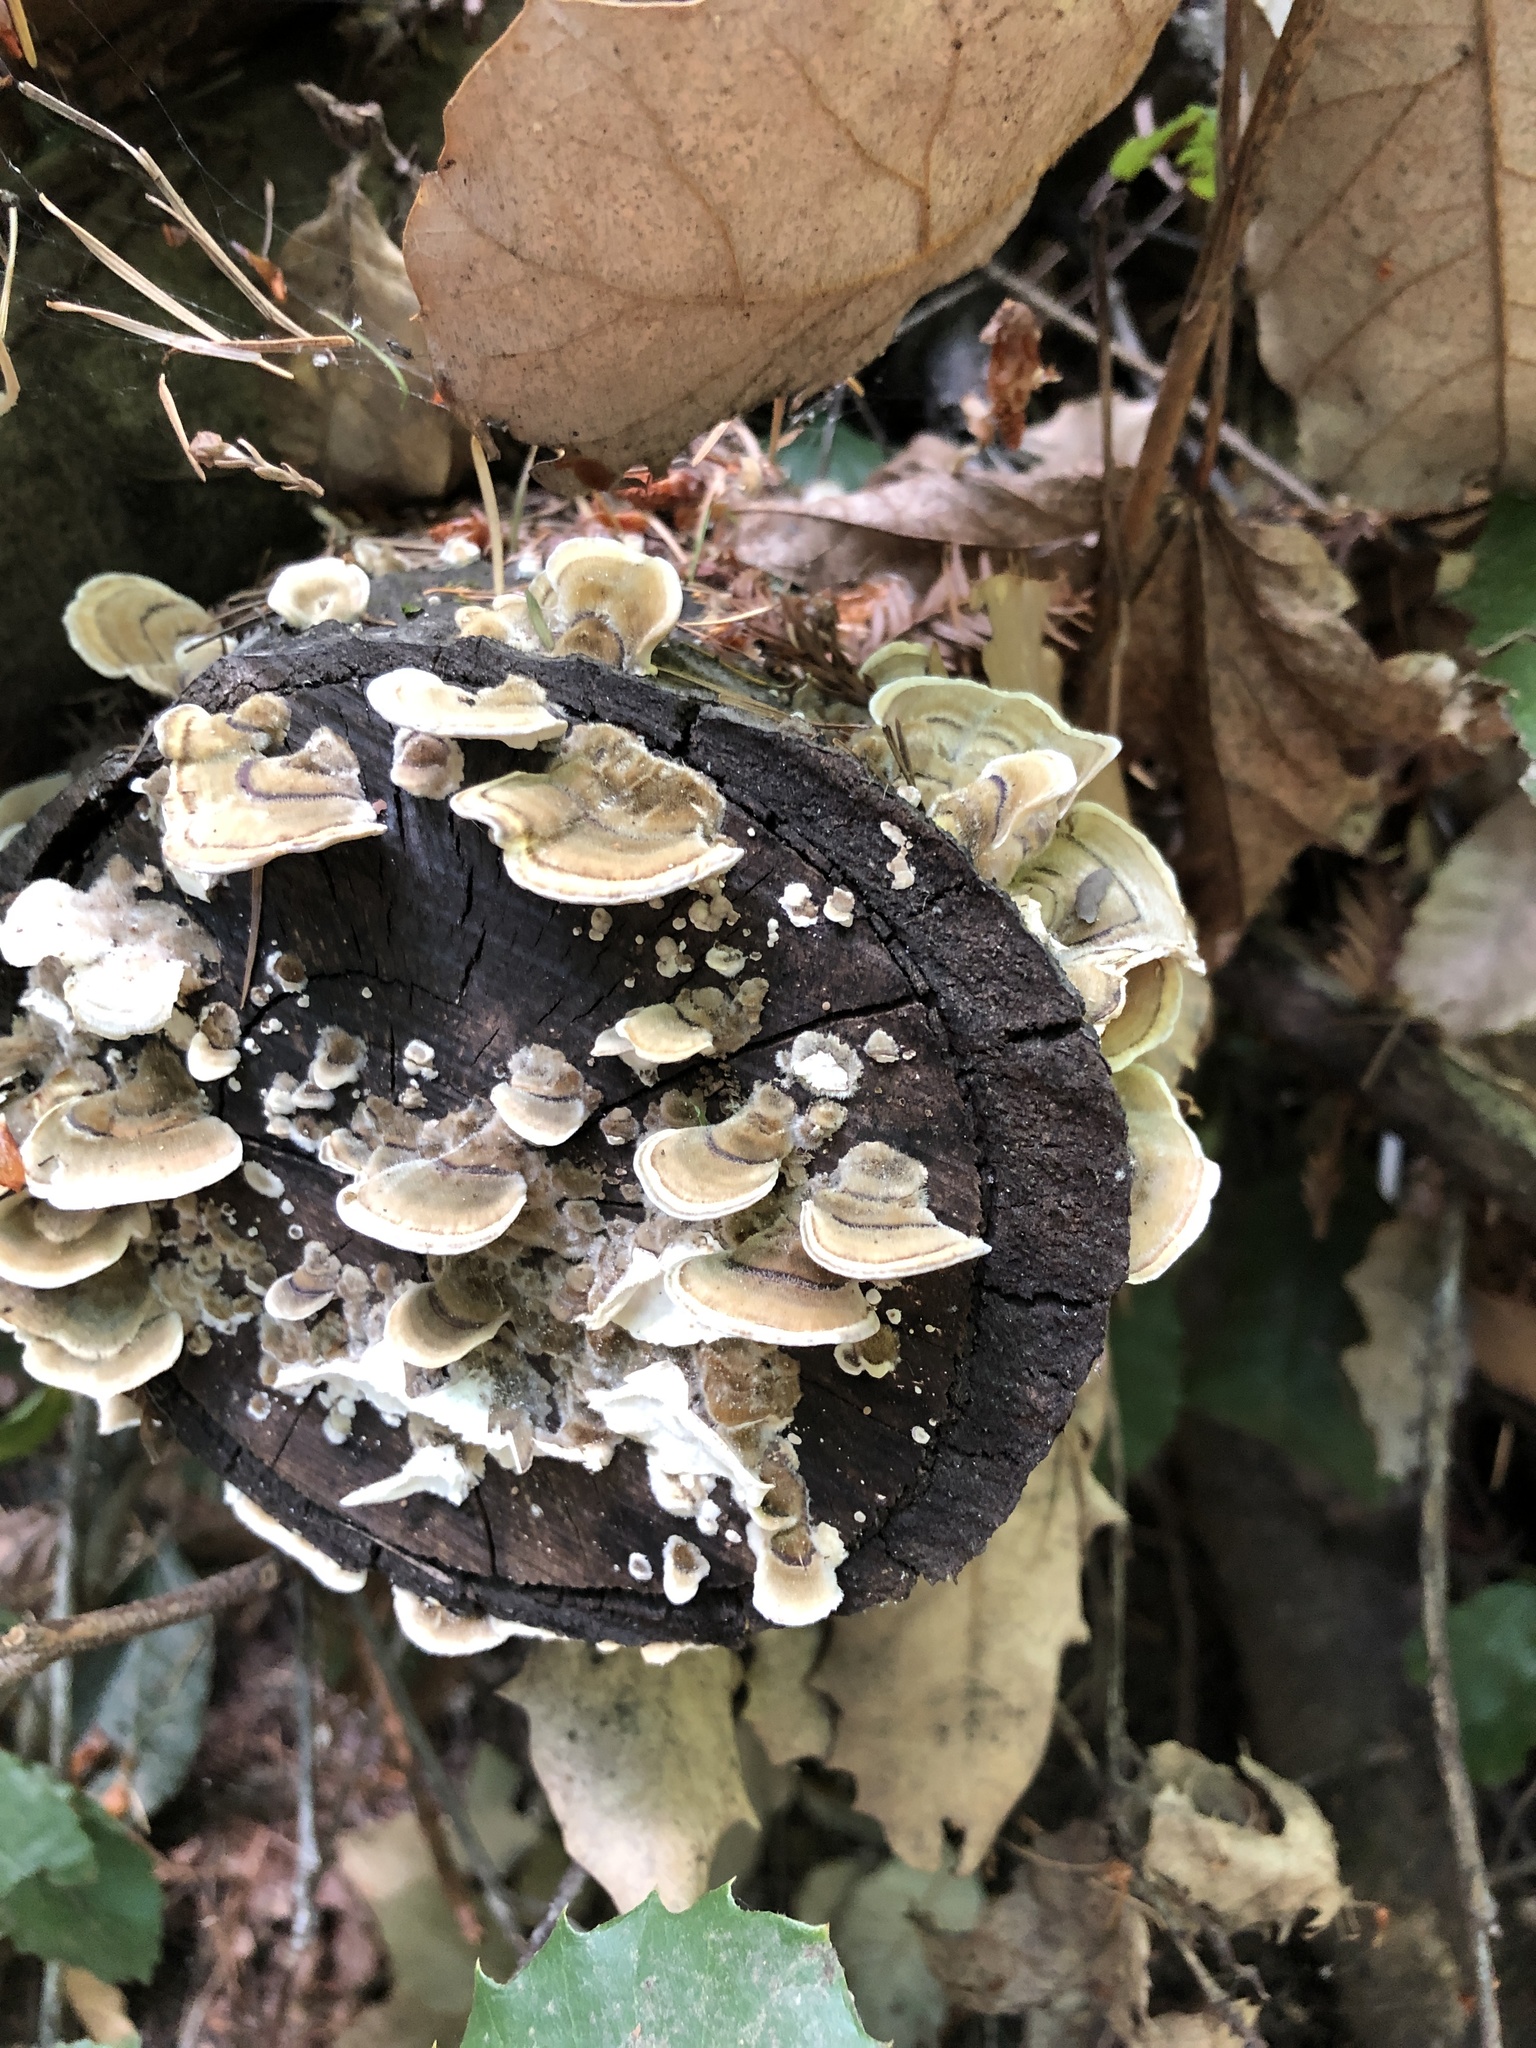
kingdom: Fungi
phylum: Basidiomycota
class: Agaricomycetes
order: Polyporales
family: Polyporaceae
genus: Trametes
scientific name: Trametes versicolor
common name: Turkeytail
